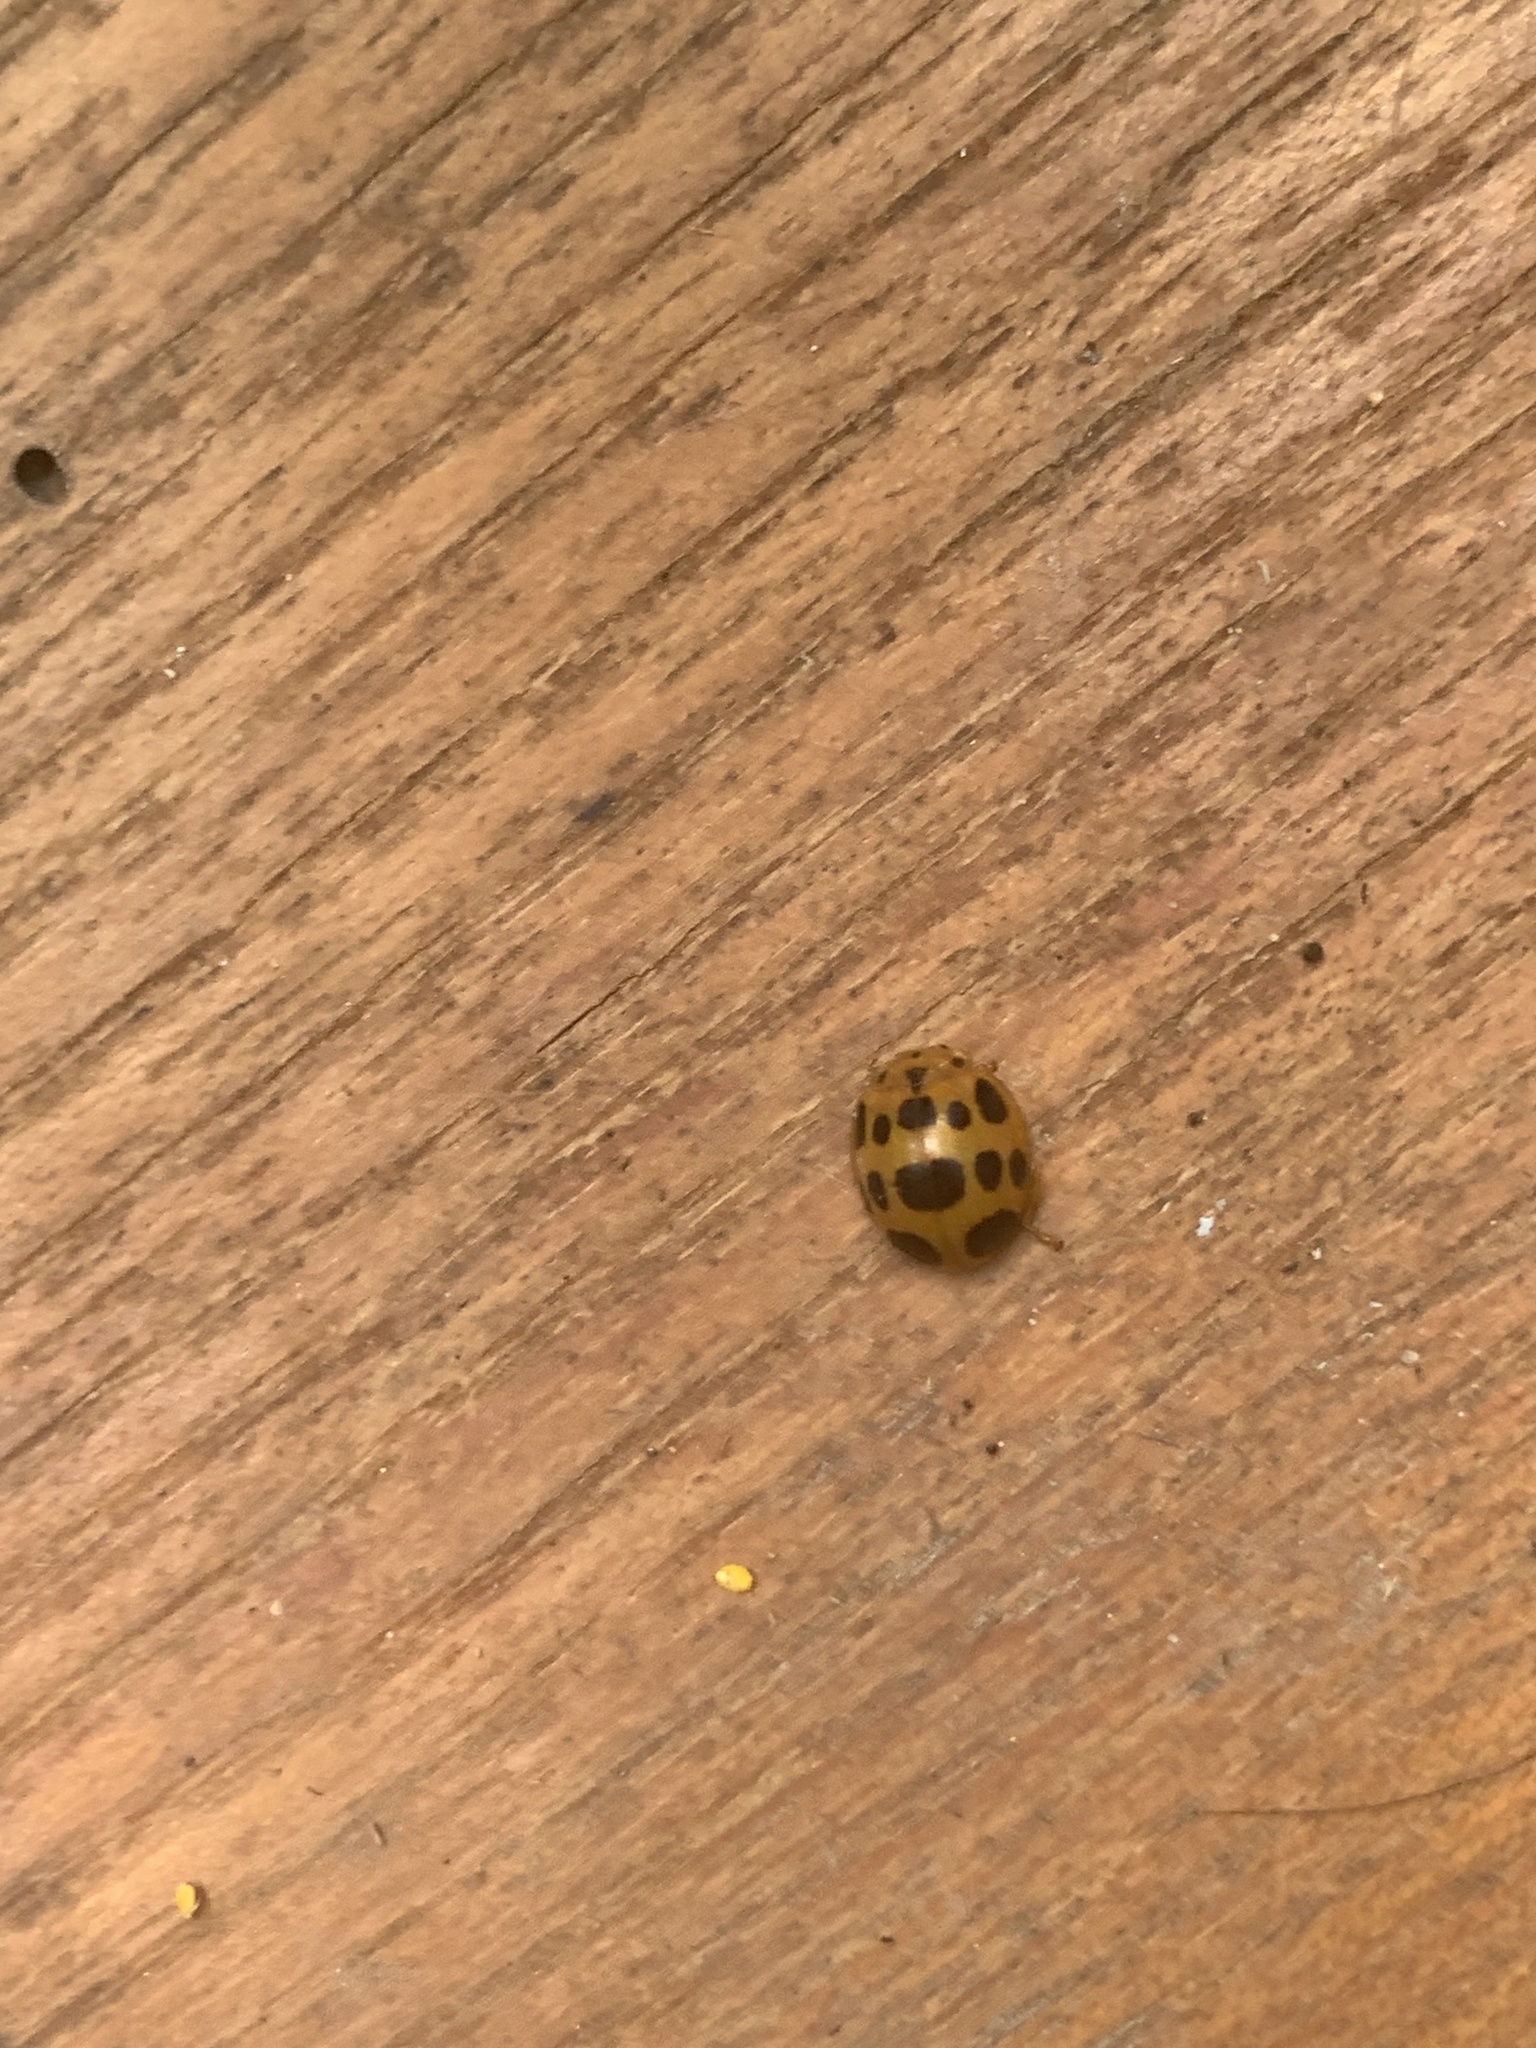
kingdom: Animalia
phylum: Arthropoda
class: Insecta
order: Coleoptera
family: Coccinellidae
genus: Epilachna
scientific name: Epilachna borealis
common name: Squash beetle
